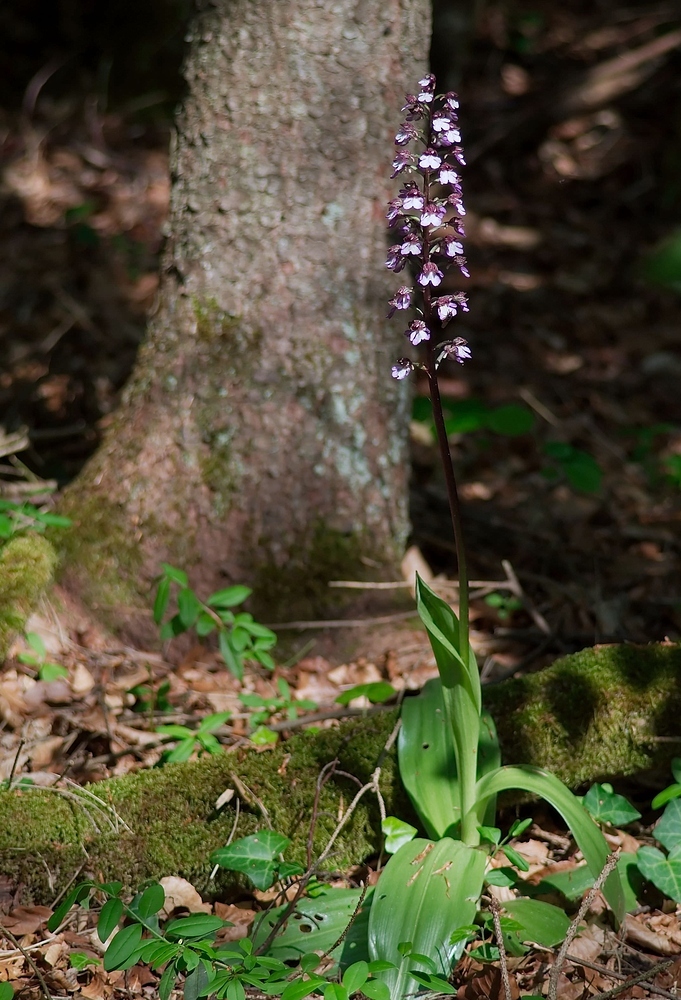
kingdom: Plantae
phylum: Tracheophyta
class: Liliopsida
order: Asparagales
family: Orchidaceae
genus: Orchis
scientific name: Orchis purpurea
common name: Lady orchid
